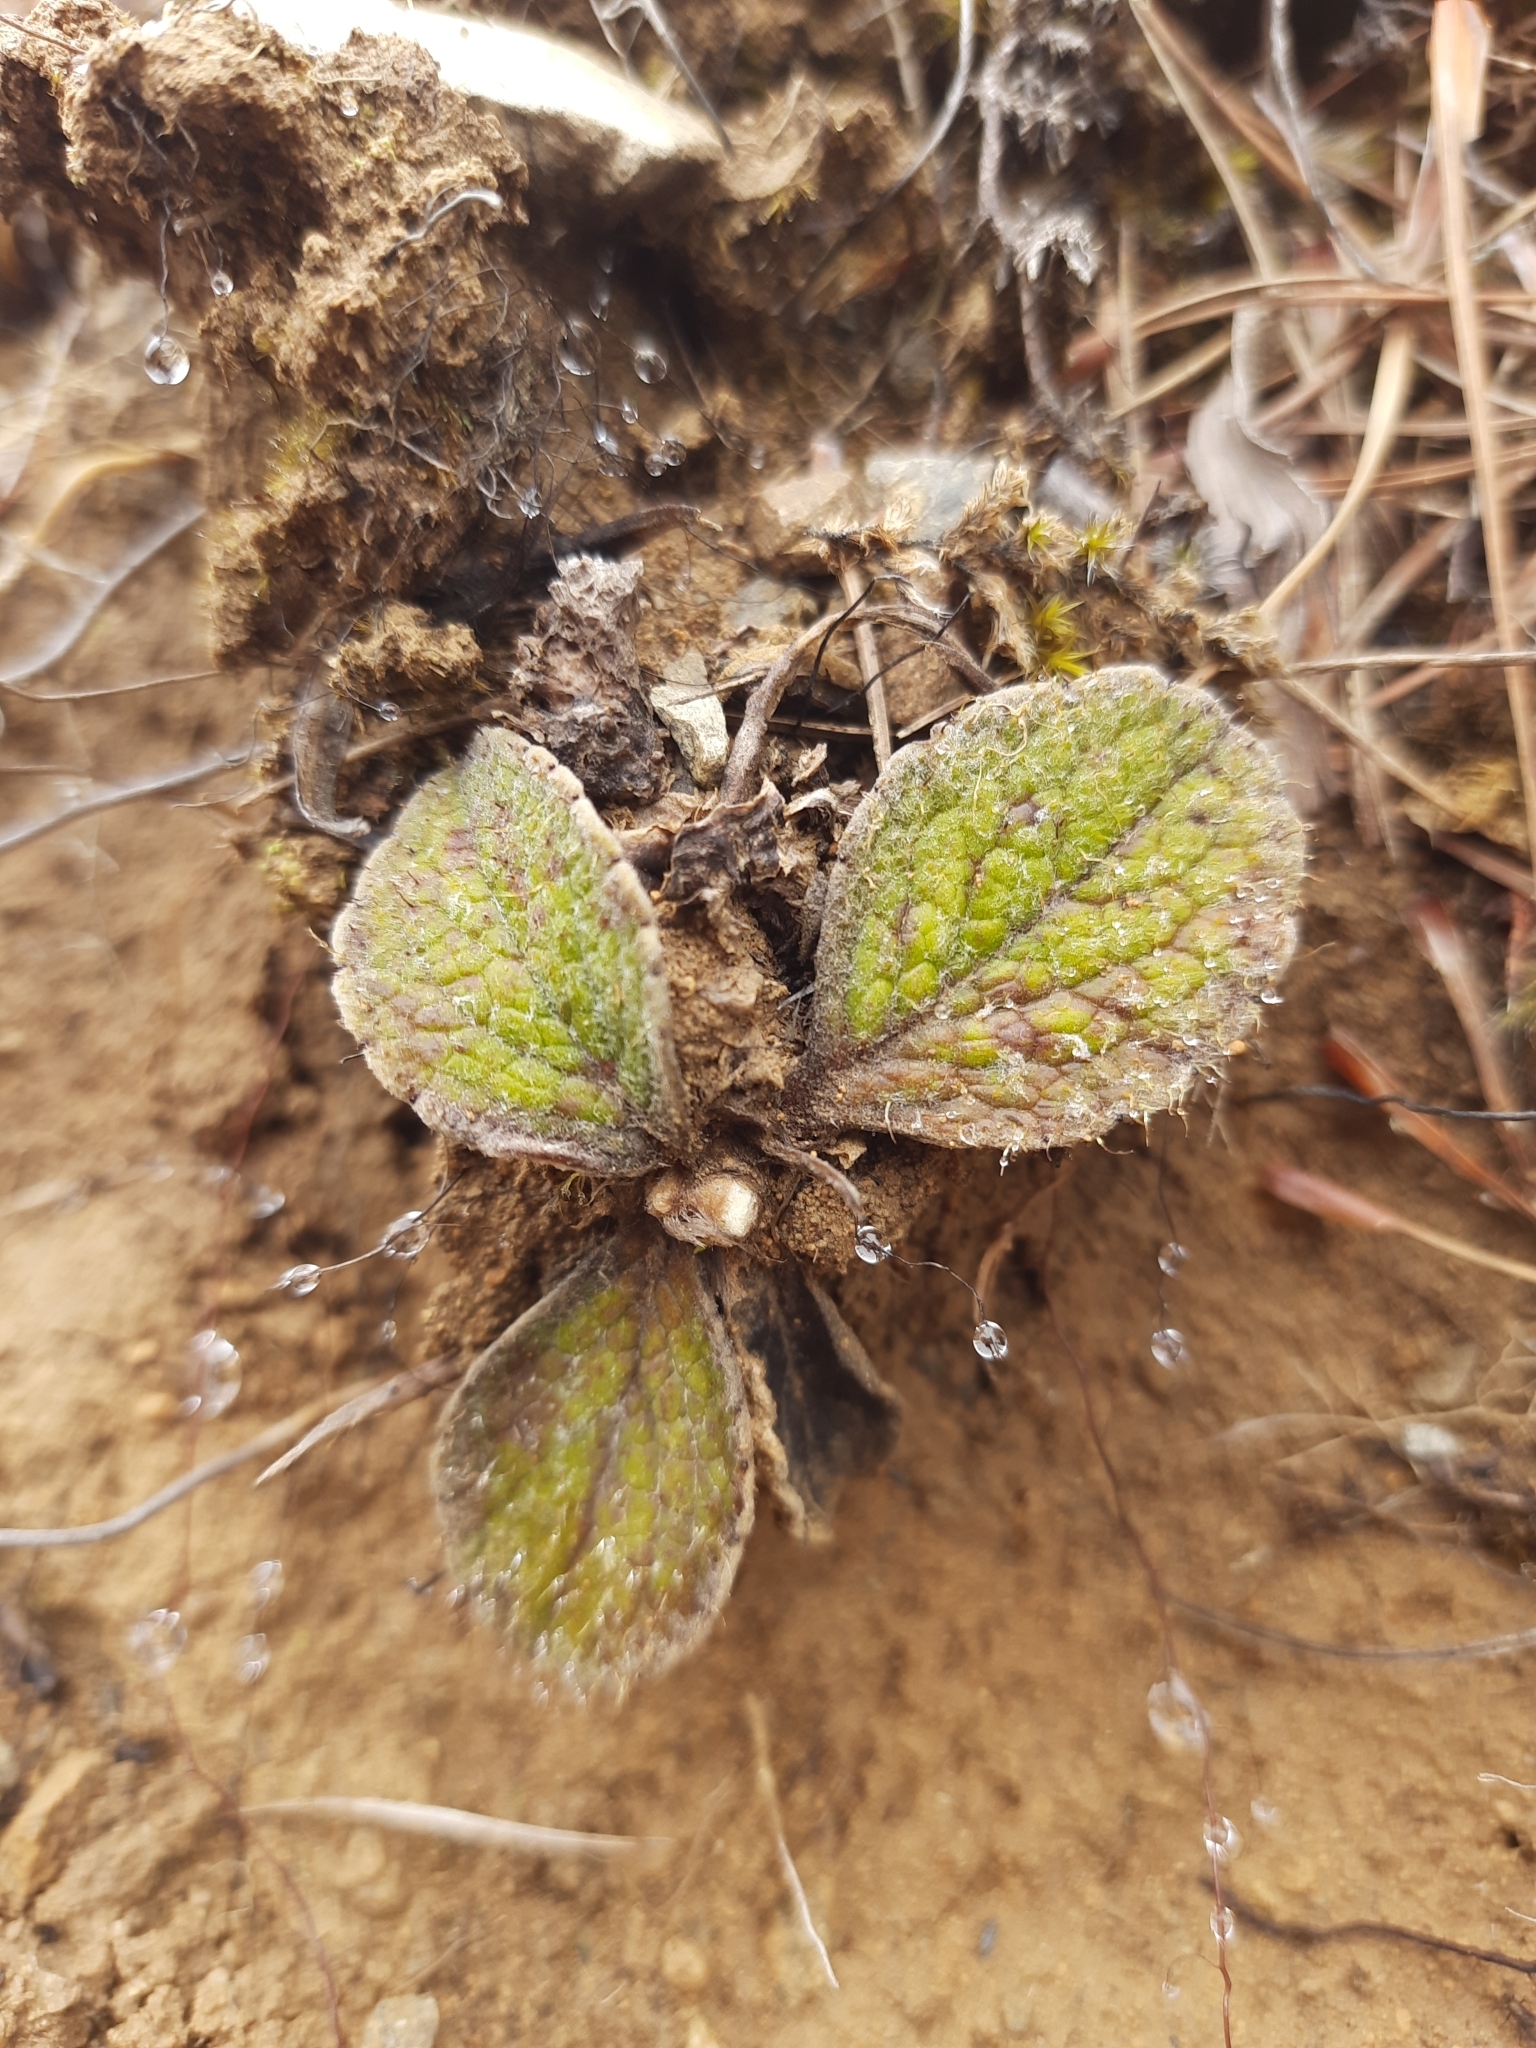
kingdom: Plantae
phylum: Tracheophyta
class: Magnoliopsida
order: Asterales
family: Asteraceae
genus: Brachyglottis
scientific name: Brachyglottis lagopus
